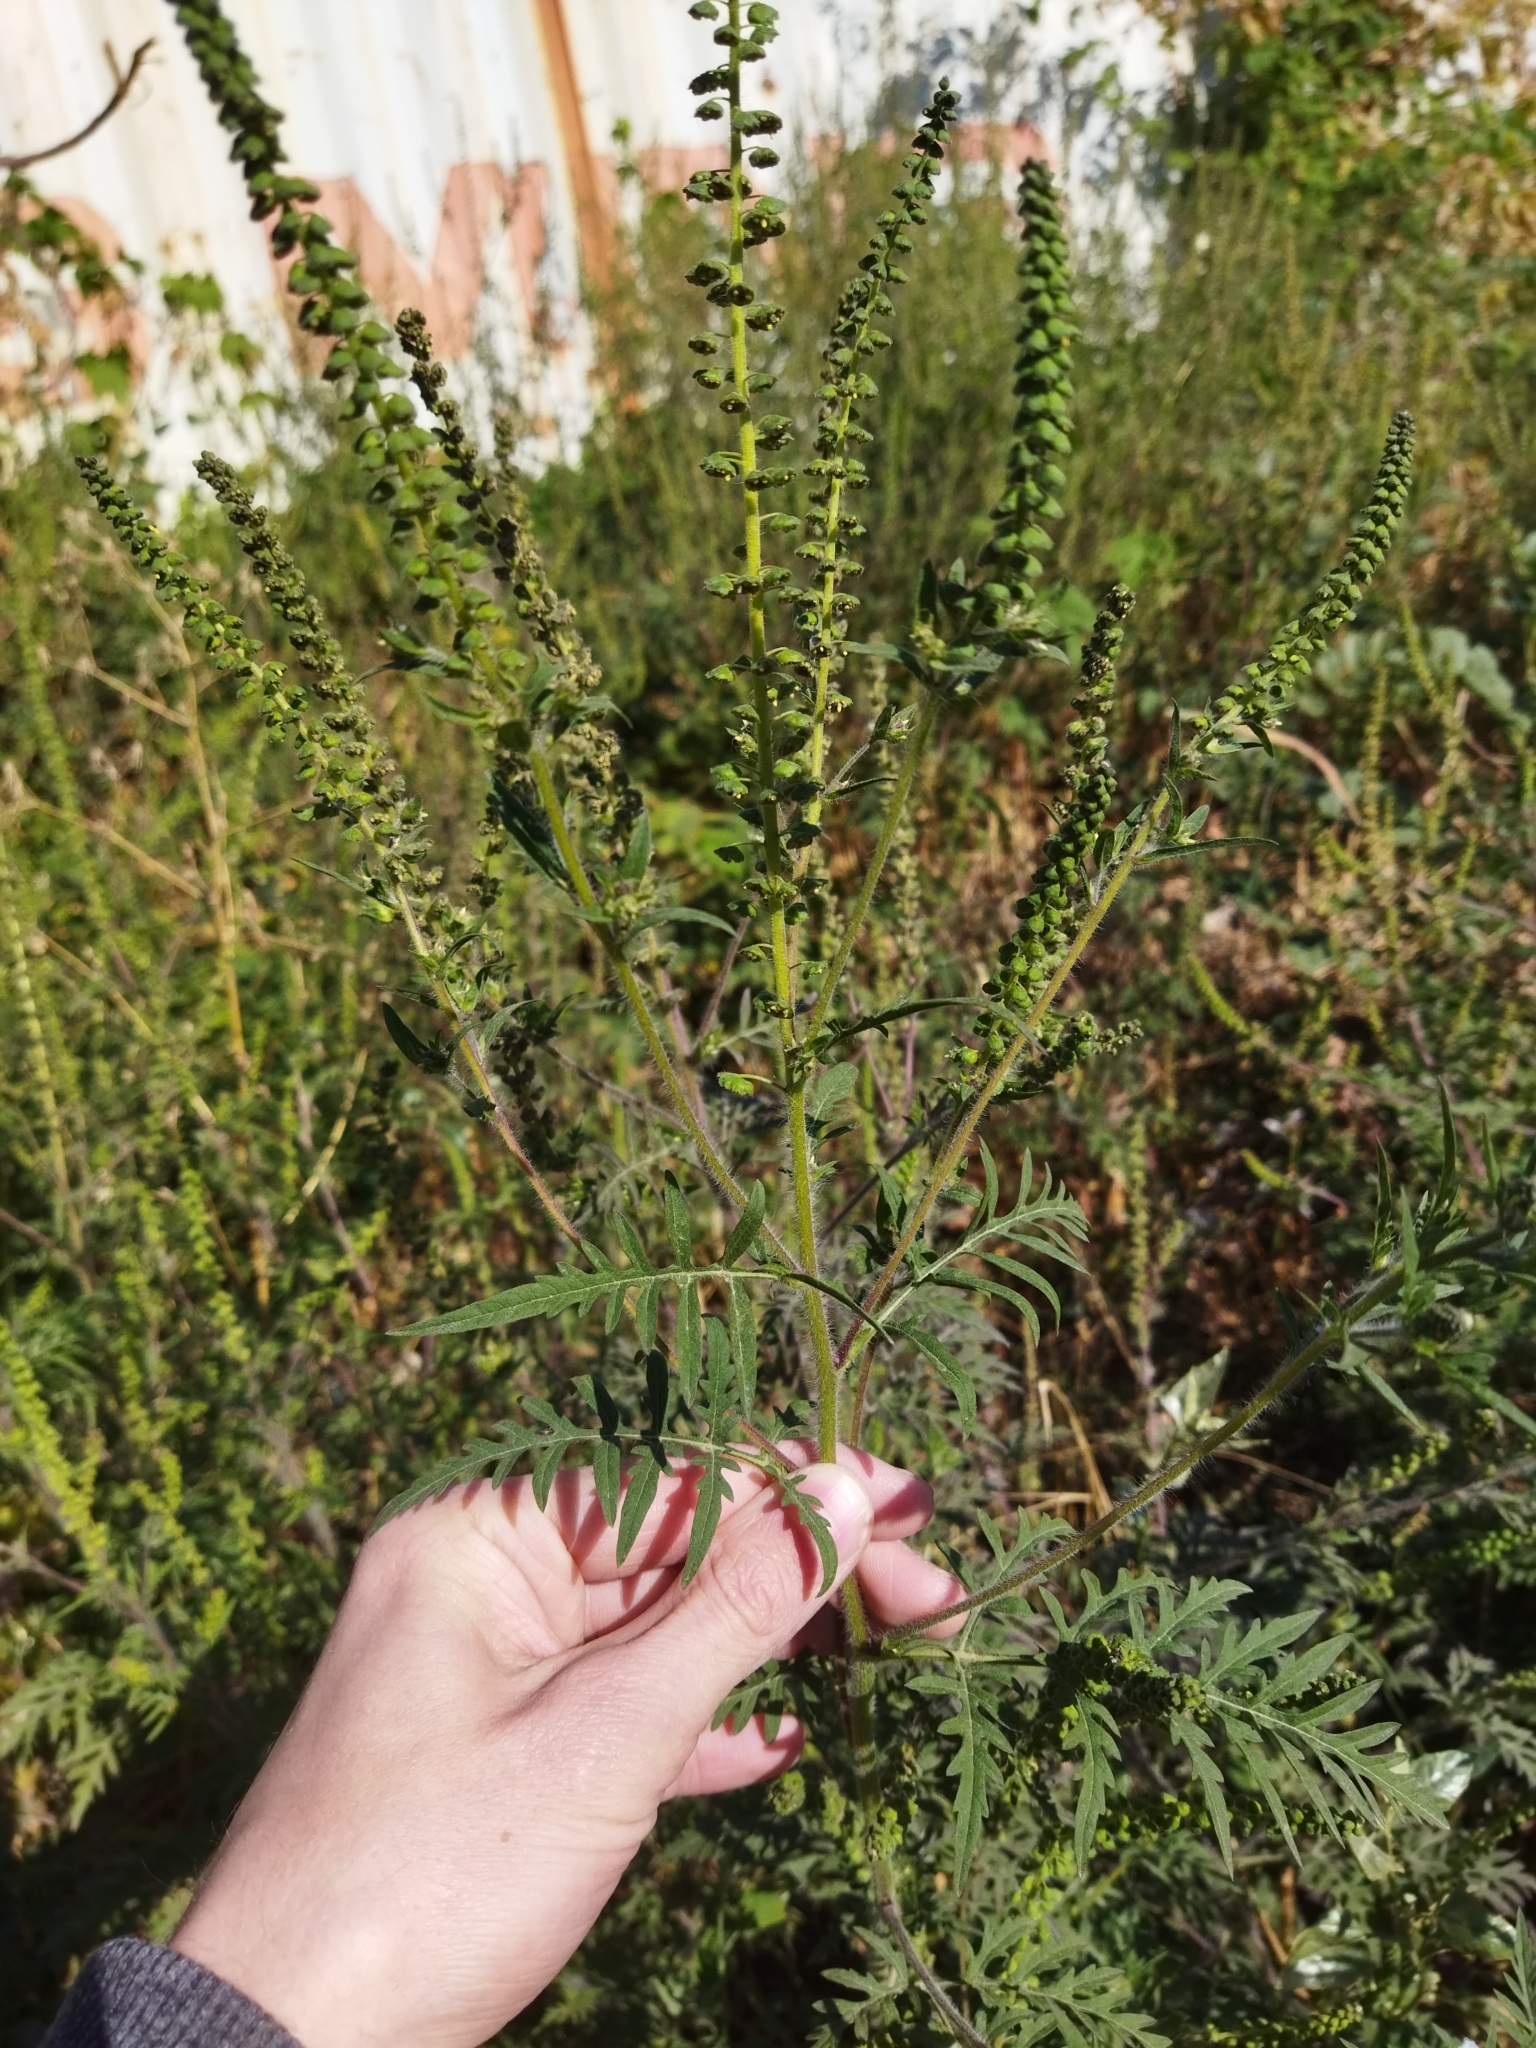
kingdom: Plantae
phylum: Tracheophyta
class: Magnoliopsida
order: Asterales
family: Asteraceae
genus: Ambrosia
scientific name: Ambrosia artemisiifolia
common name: Annual ragweed
